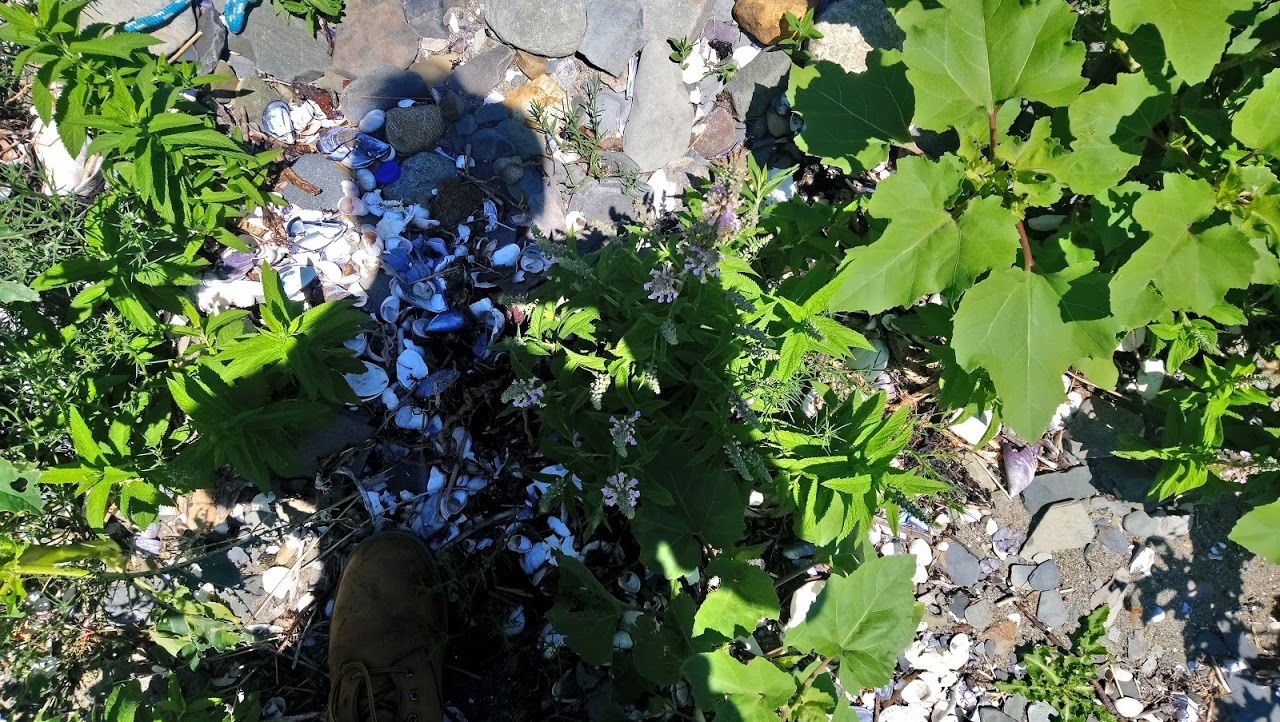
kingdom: Plantae
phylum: Tracheophyta
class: Magnoliopsida
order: Lamiales
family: Lamiaceae
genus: Teucrium
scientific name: Teucrium canadense
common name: American germander
